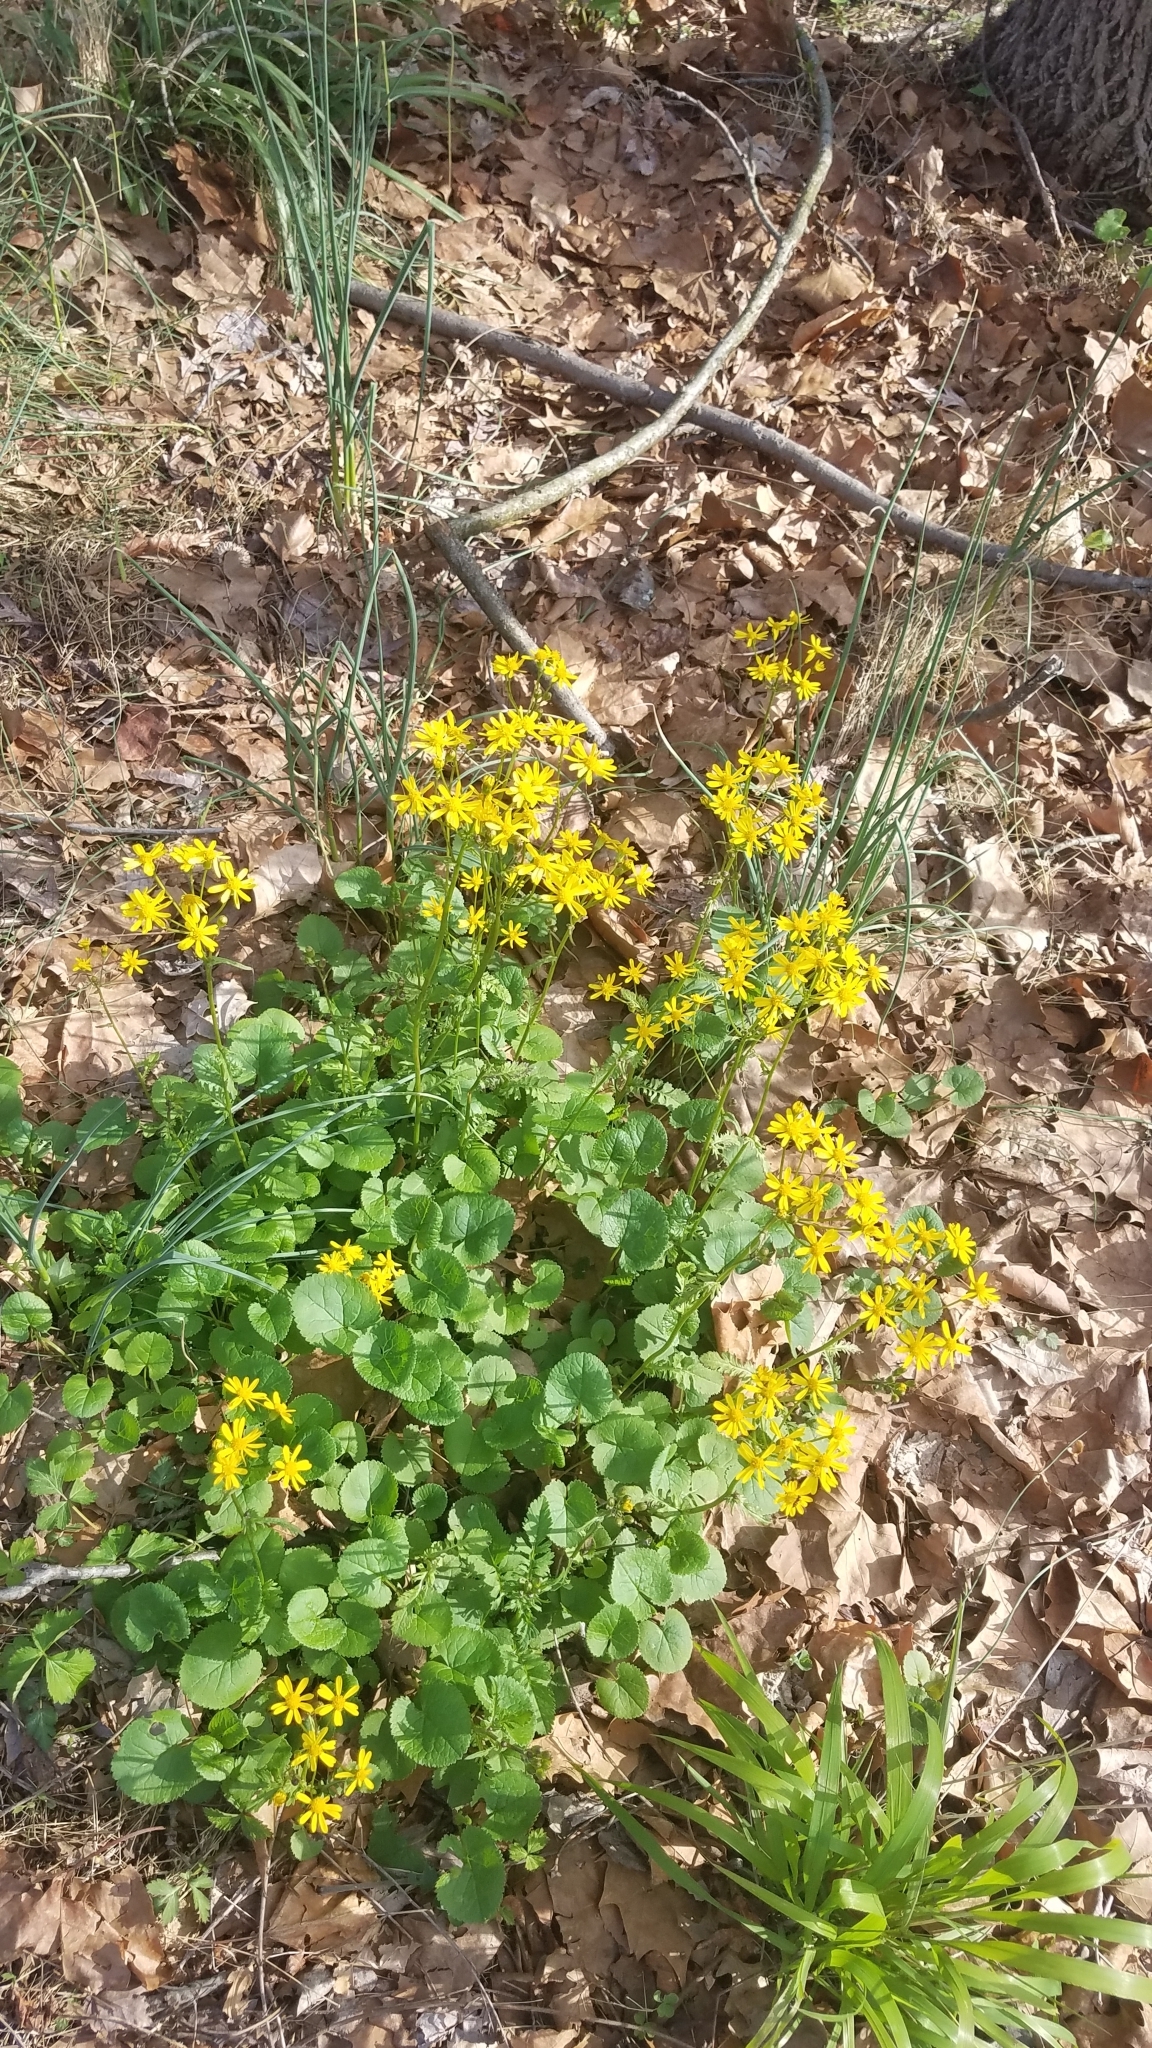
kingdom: Plantae
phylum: Tracheophyta
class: Magnoliopsida
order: Asterales
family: Asteraceae
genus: Packera
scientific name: Packera aurea
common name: Golden groundsel
